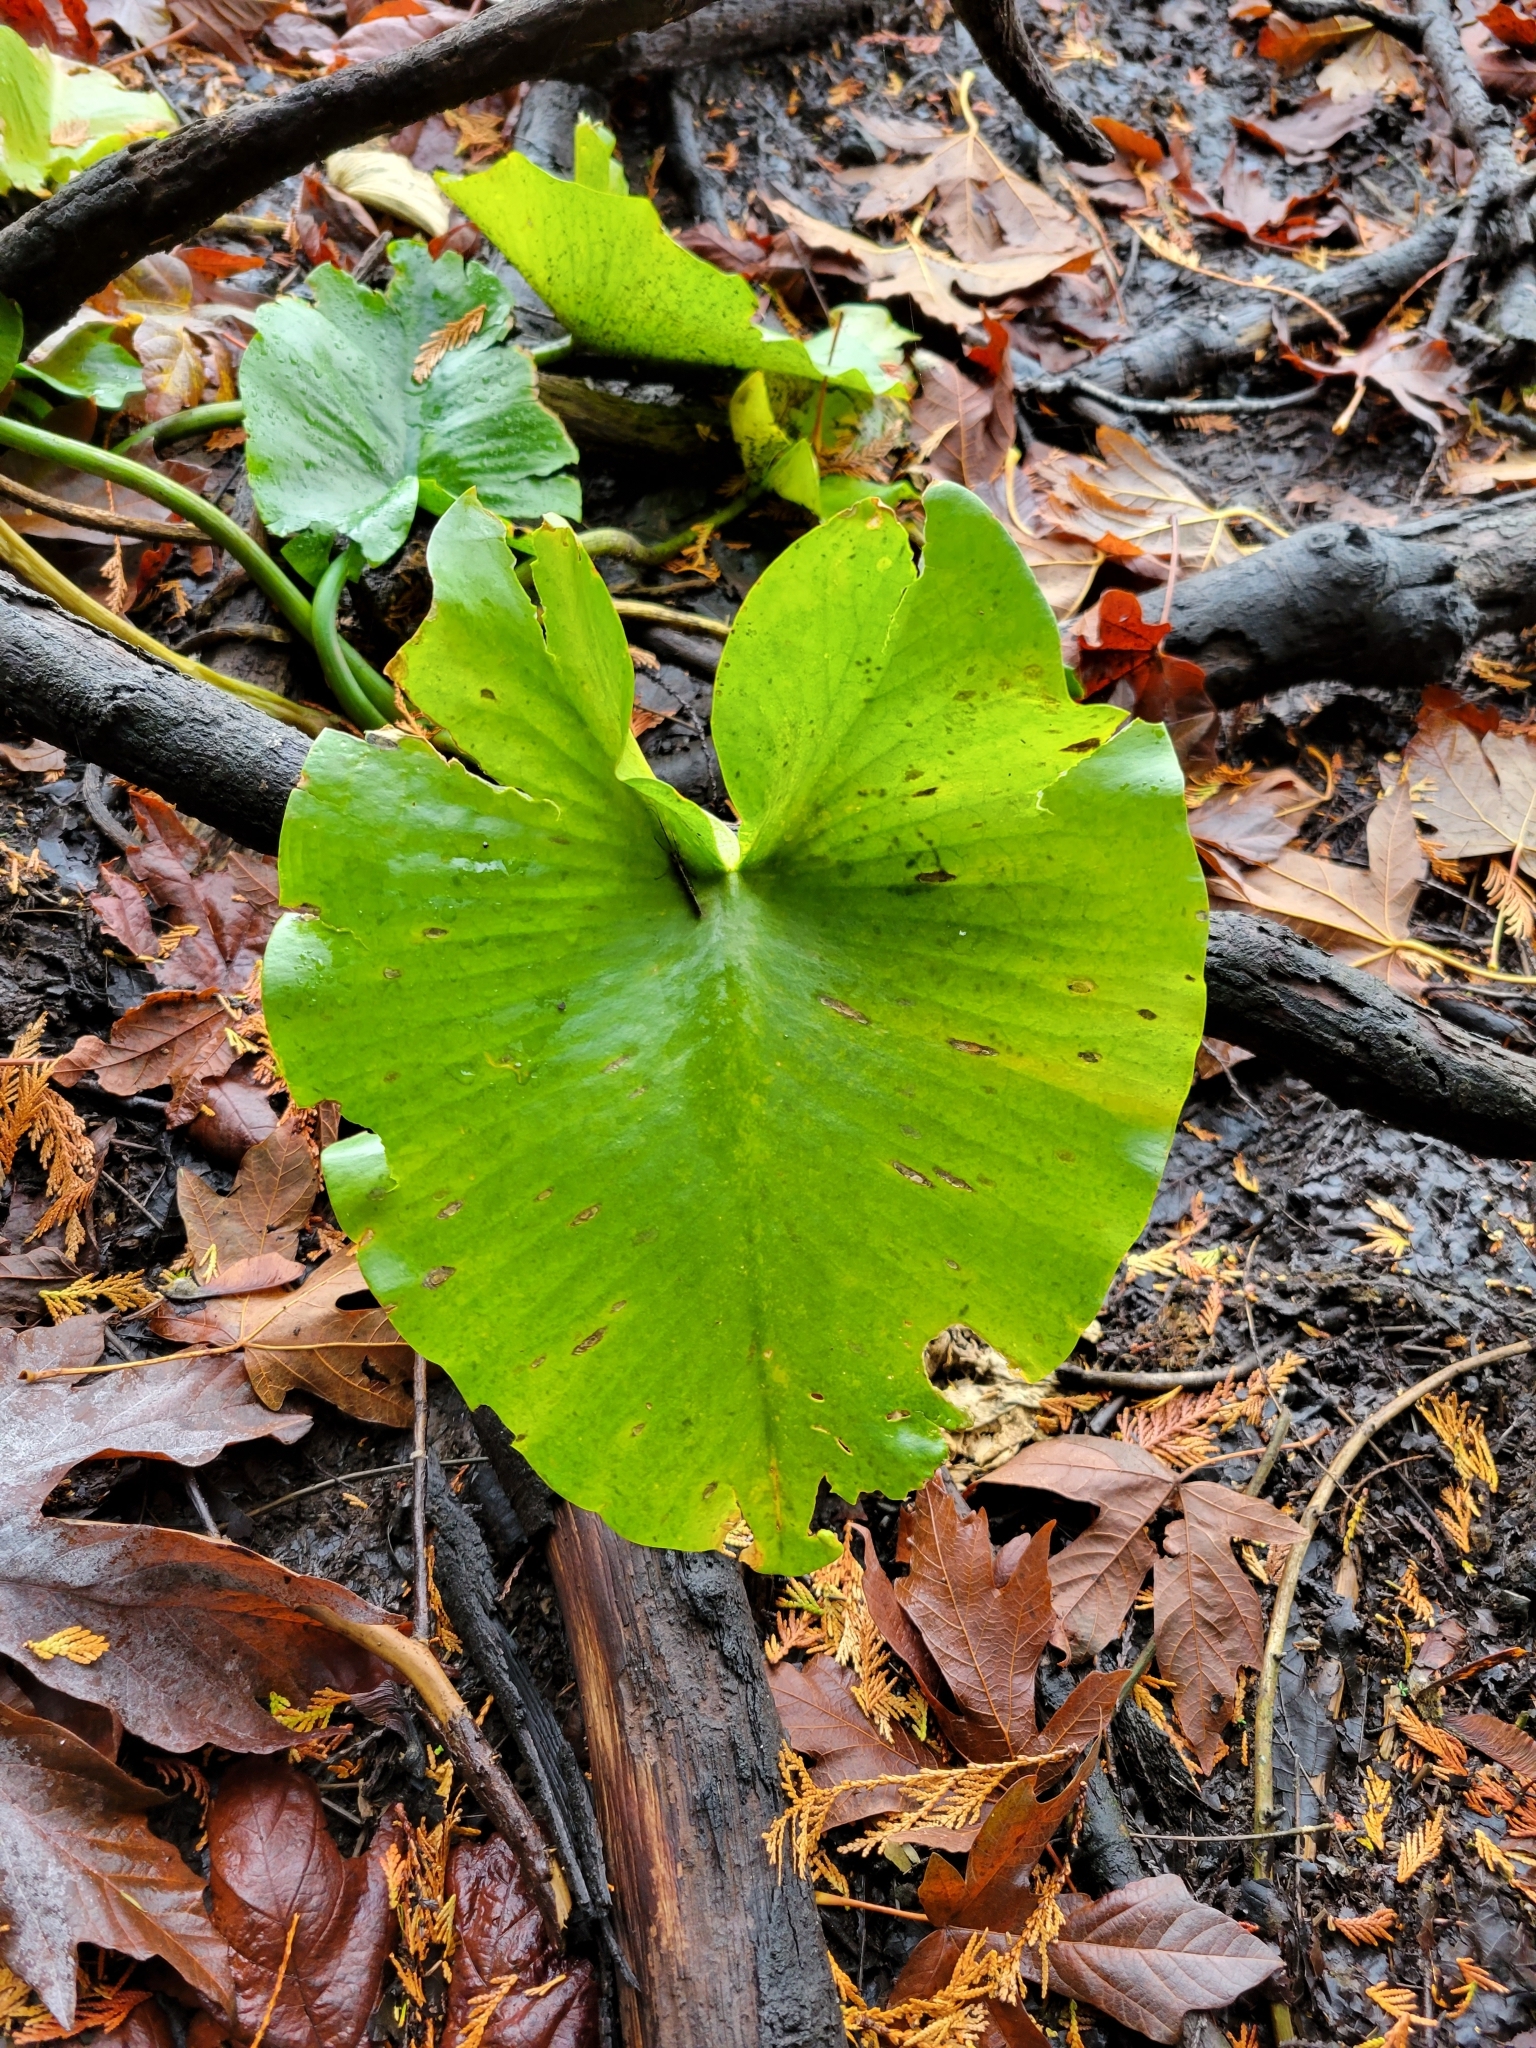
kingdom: Plantae
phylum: Tracheophyta
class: Magnoliopsida
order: Nymphaeales
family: Nymphaeaceae
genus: Nuphar
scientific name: Nuphar polysepala
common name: Rocky mountain cow-lily
